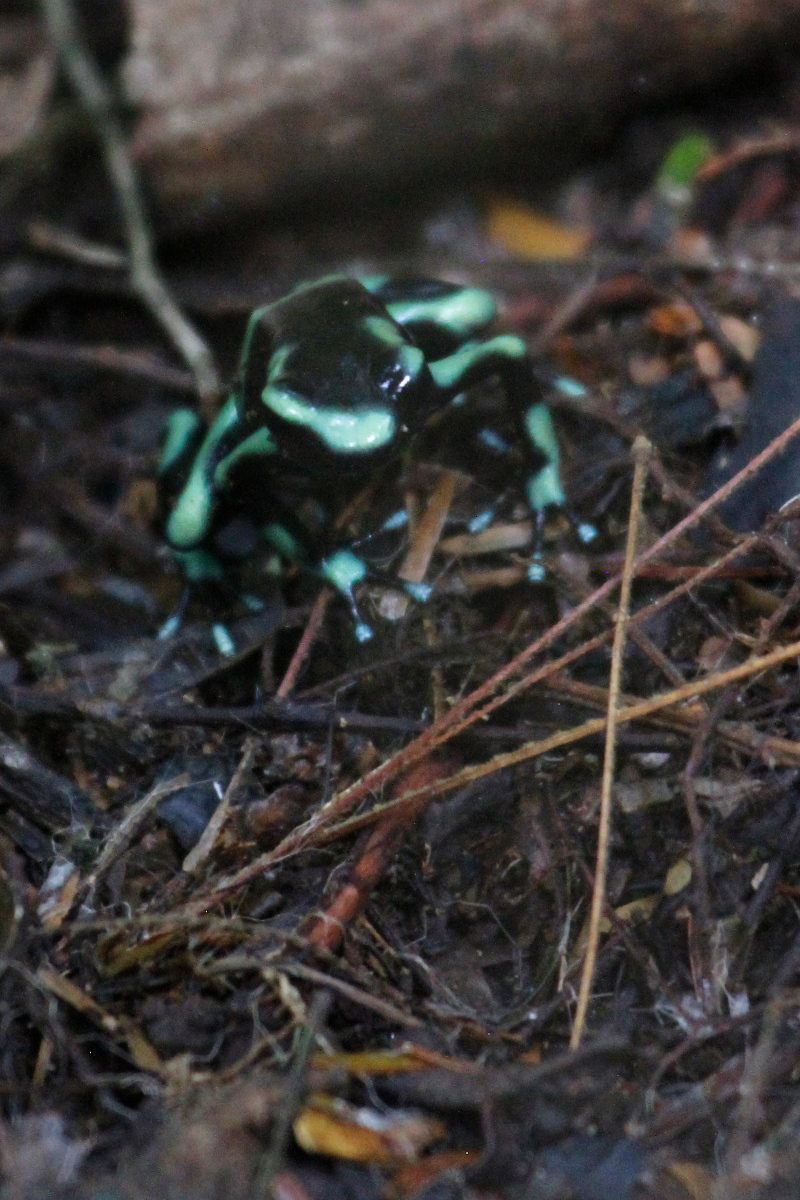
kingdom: Animalia
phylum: Chordata
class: Amphibia
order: Anura
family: Dendrobatidae
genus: Dendrobates
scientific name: Dendrobates auratus
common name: Green and black poison dart frog
